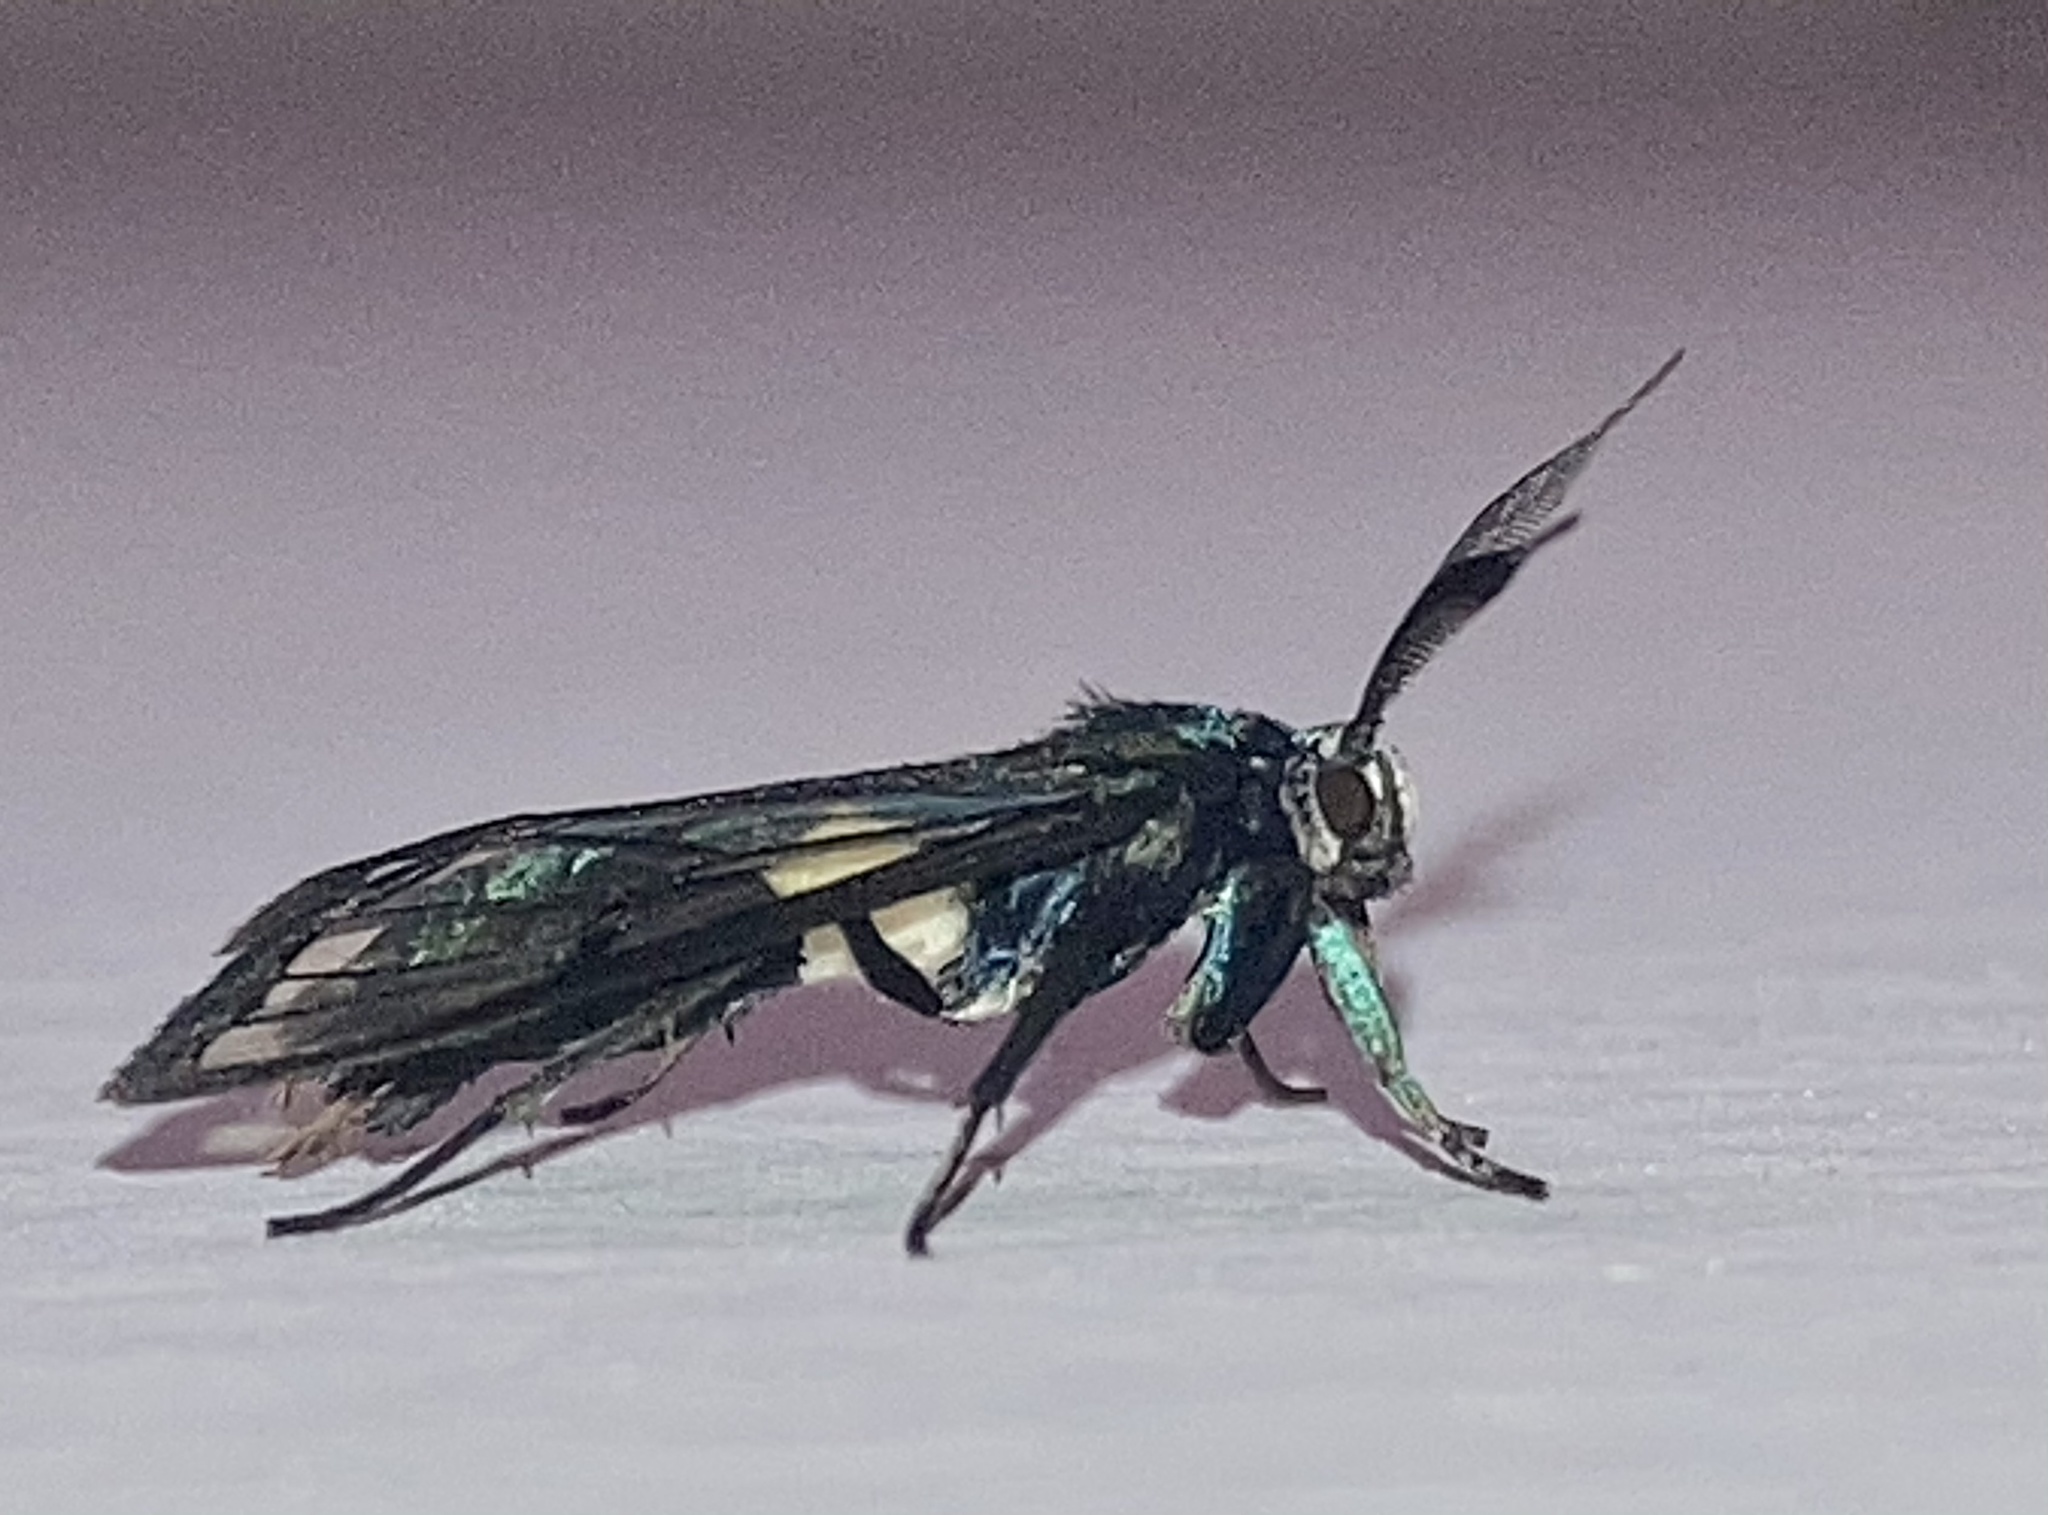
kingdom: Animalia
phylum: Arthropoda
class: Insecta
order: Lepidoptera
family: Erebidae
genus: Syntrichura
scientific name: Syntrichura virens
